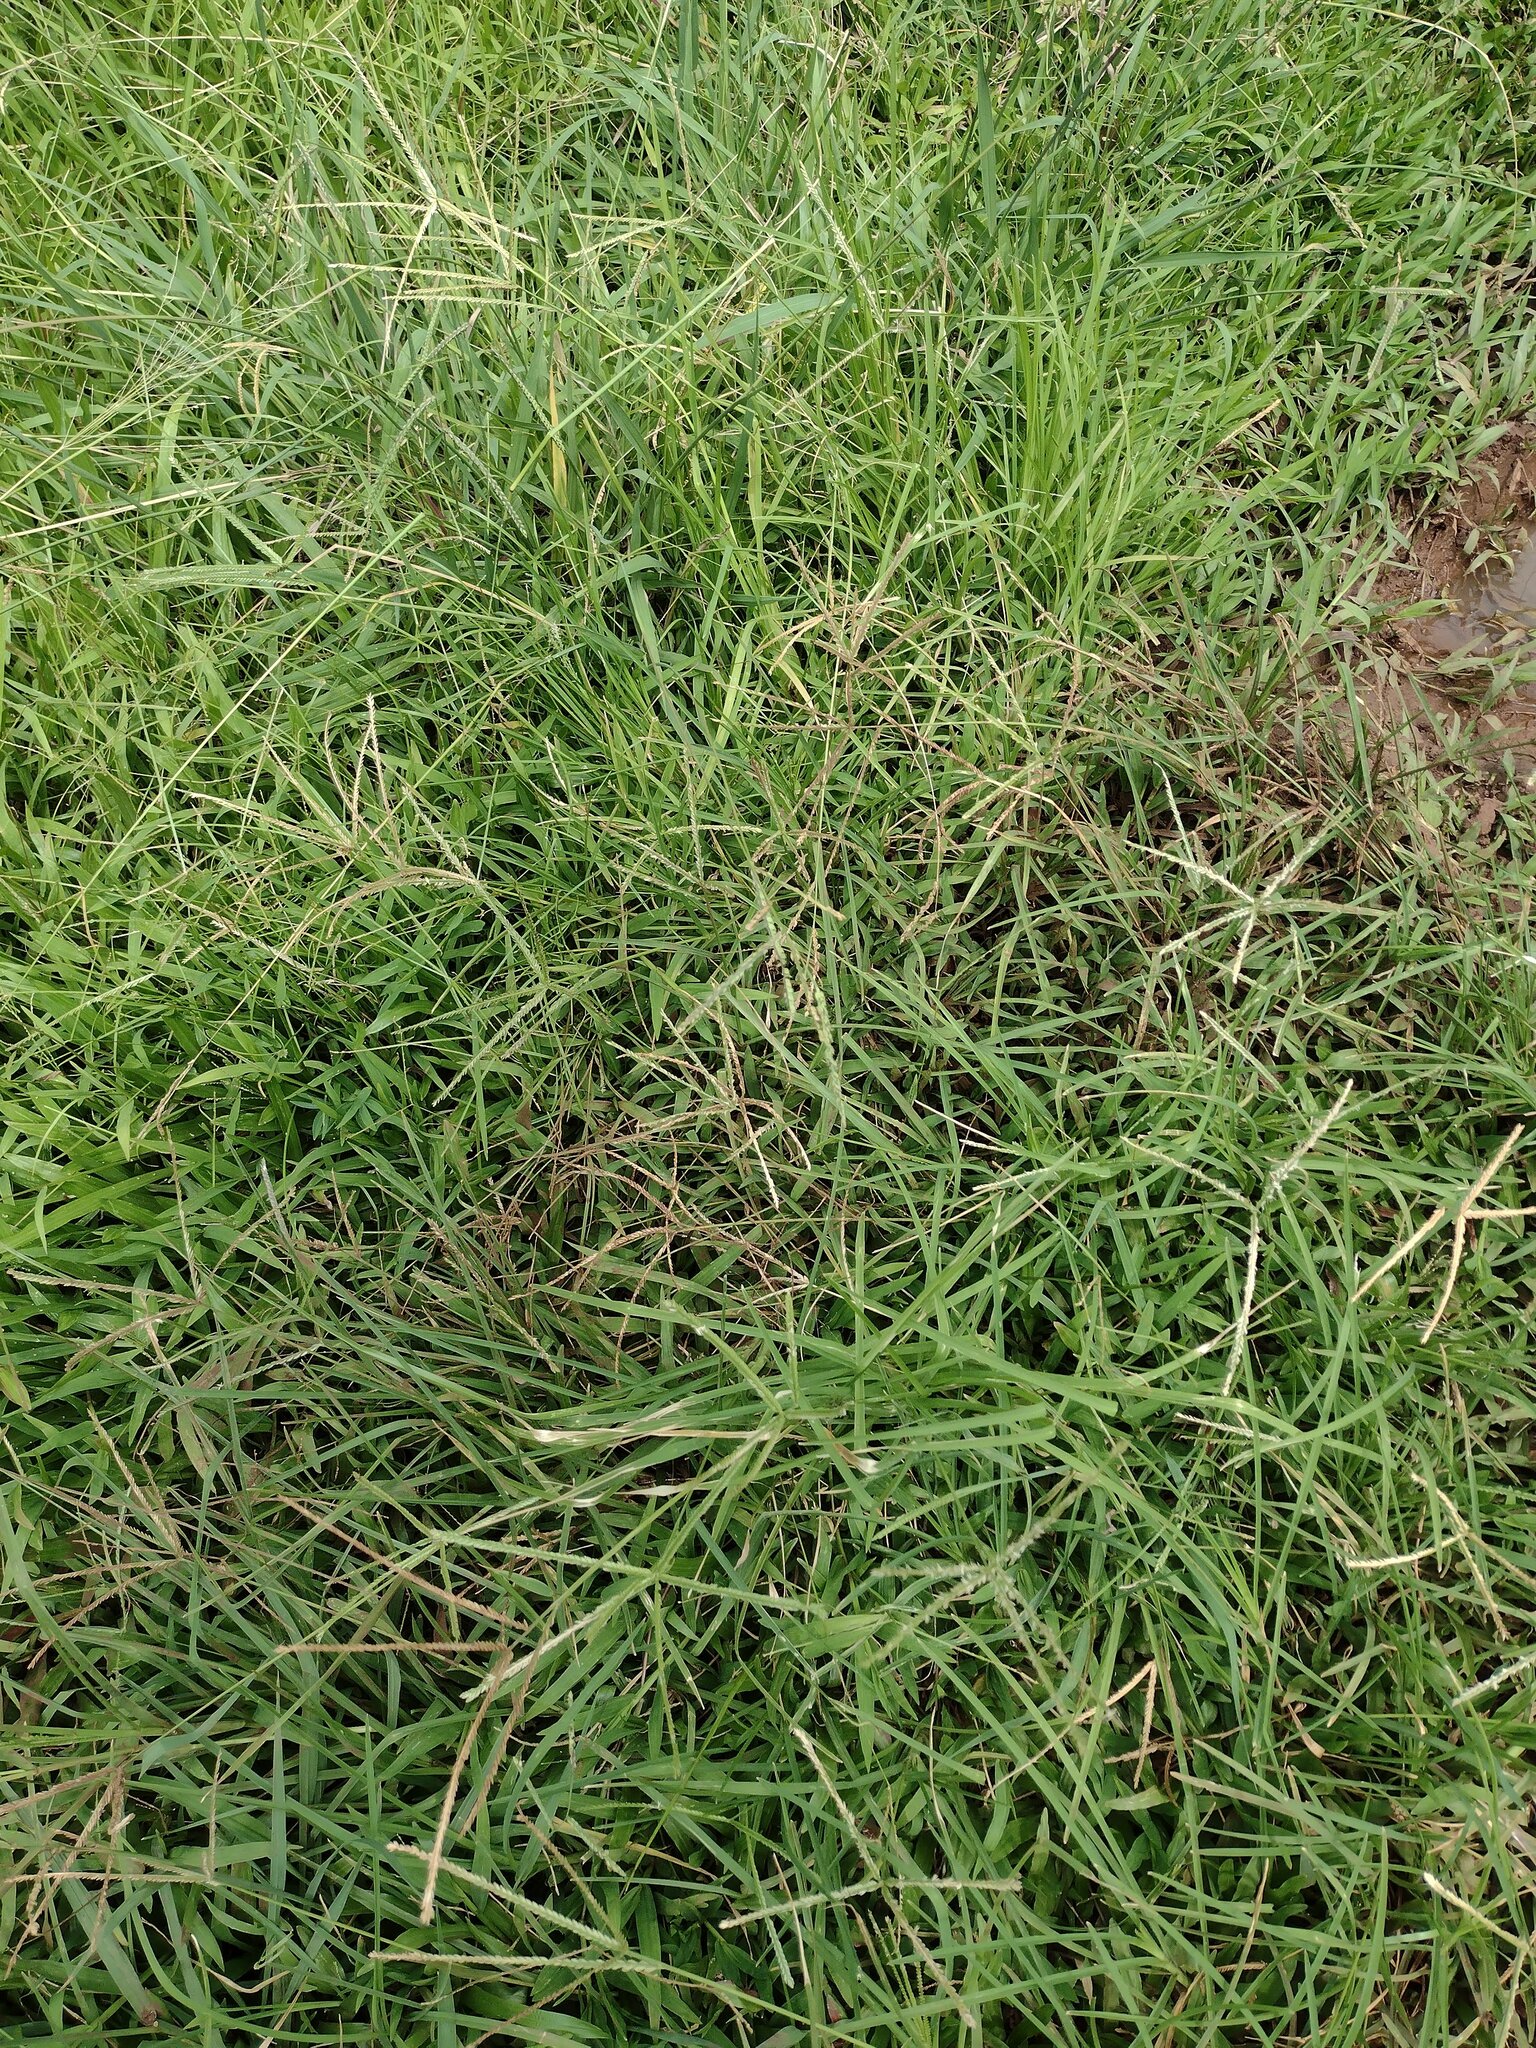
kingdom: Plantae
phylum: Tracheophyta
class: Liliopsida
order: Poales
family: Poaceae
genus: Eleusine
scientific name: Eleusine indica
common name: Yard-grass
